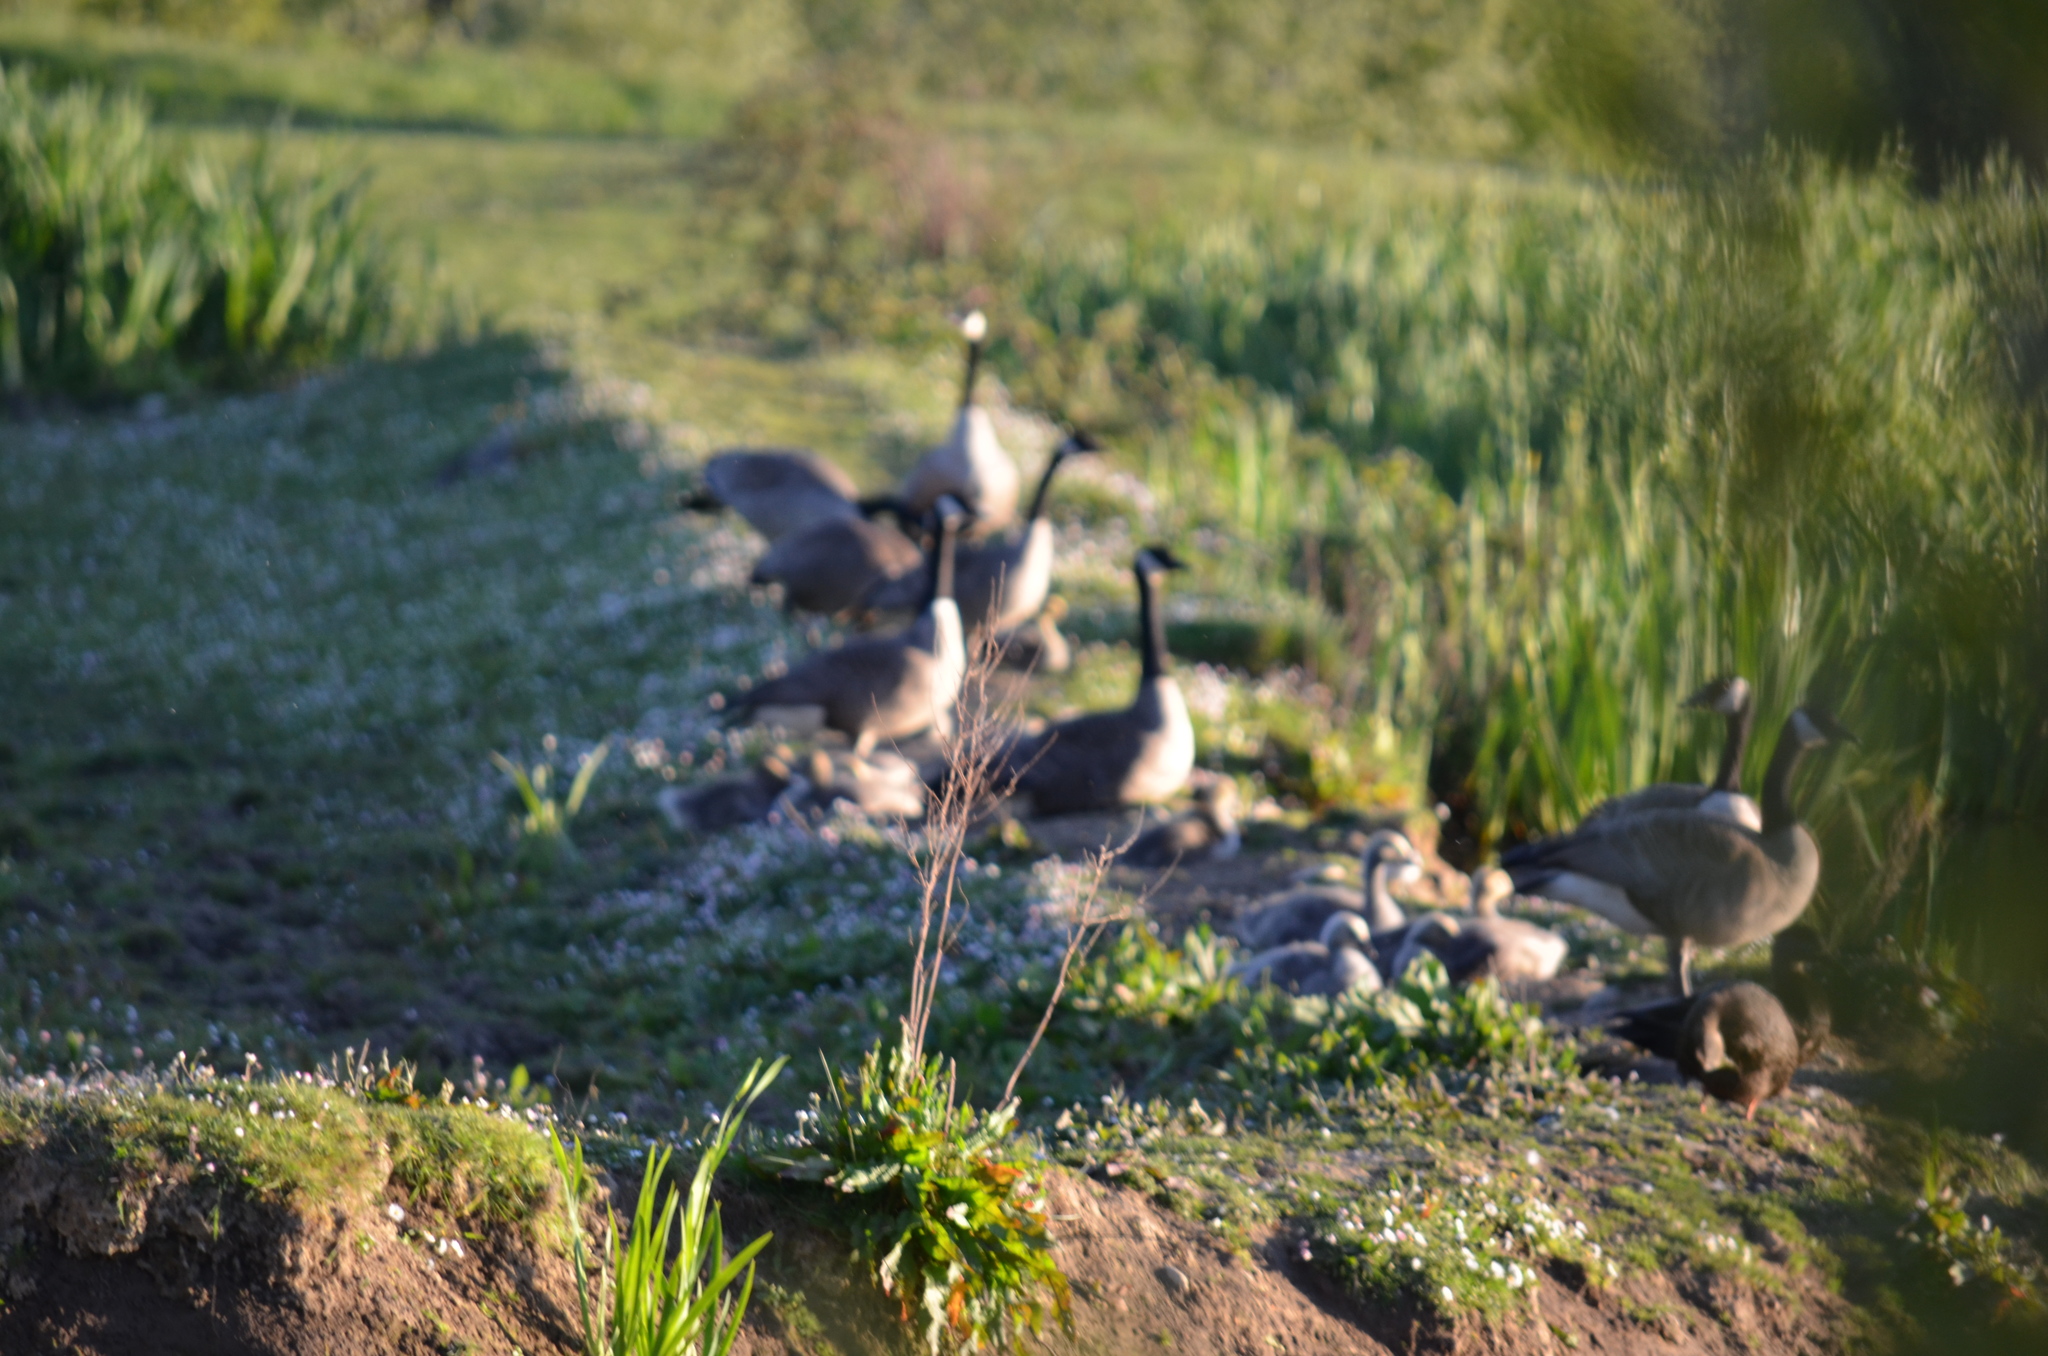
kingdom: Animalia
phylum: Chordata
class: Aves
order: Anseriformes
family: Anatidae
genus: Anas
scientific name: Anas rubripes
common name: American black duck
